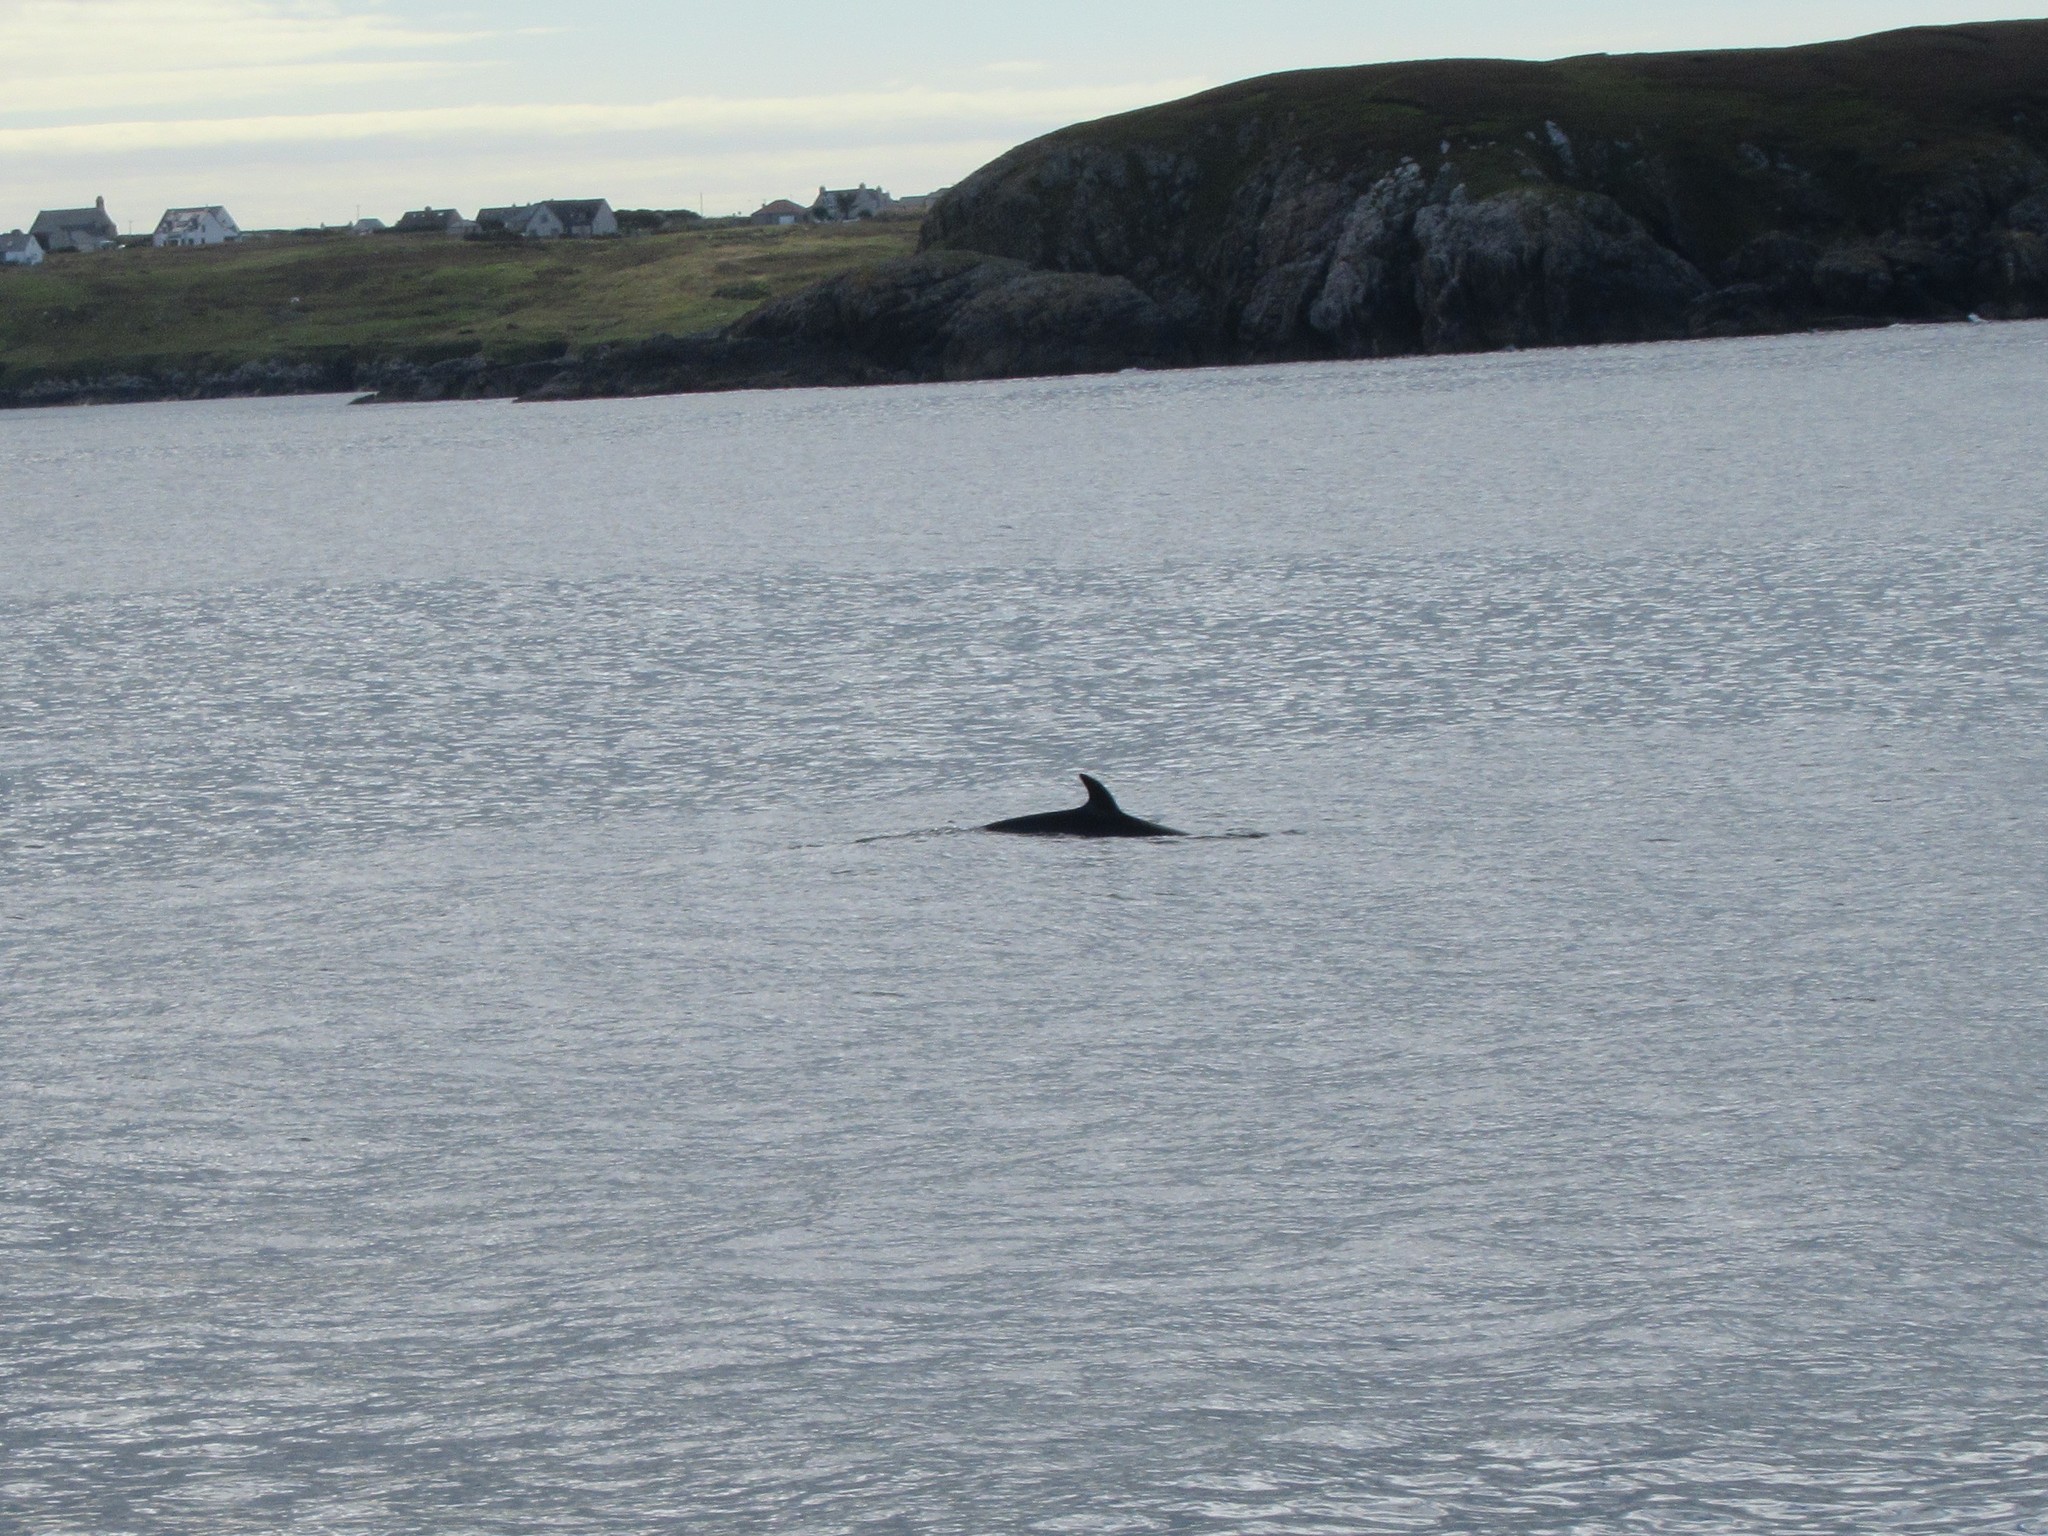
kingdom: Animalia
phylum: Chordata
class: Mammalia
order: Cetacea
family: Balaenopteridae
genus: Balaenoptera
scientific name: Balaenoptera acutorostrata
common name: Common minke whale
